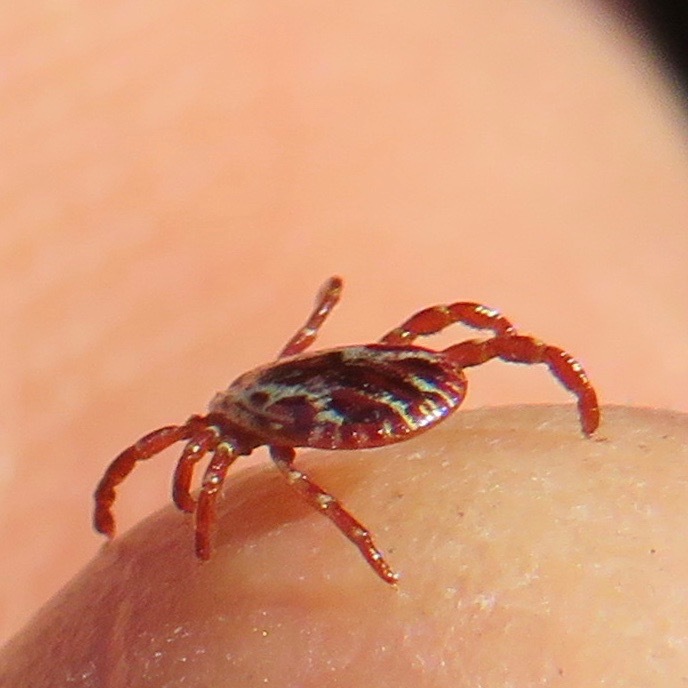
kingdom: Animalia
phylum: Arthropoda
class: Arachnida
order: Ixodida
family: Ixodidae
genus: Dermacentor
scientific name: Dermacentor variabilis
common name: American dog tick
